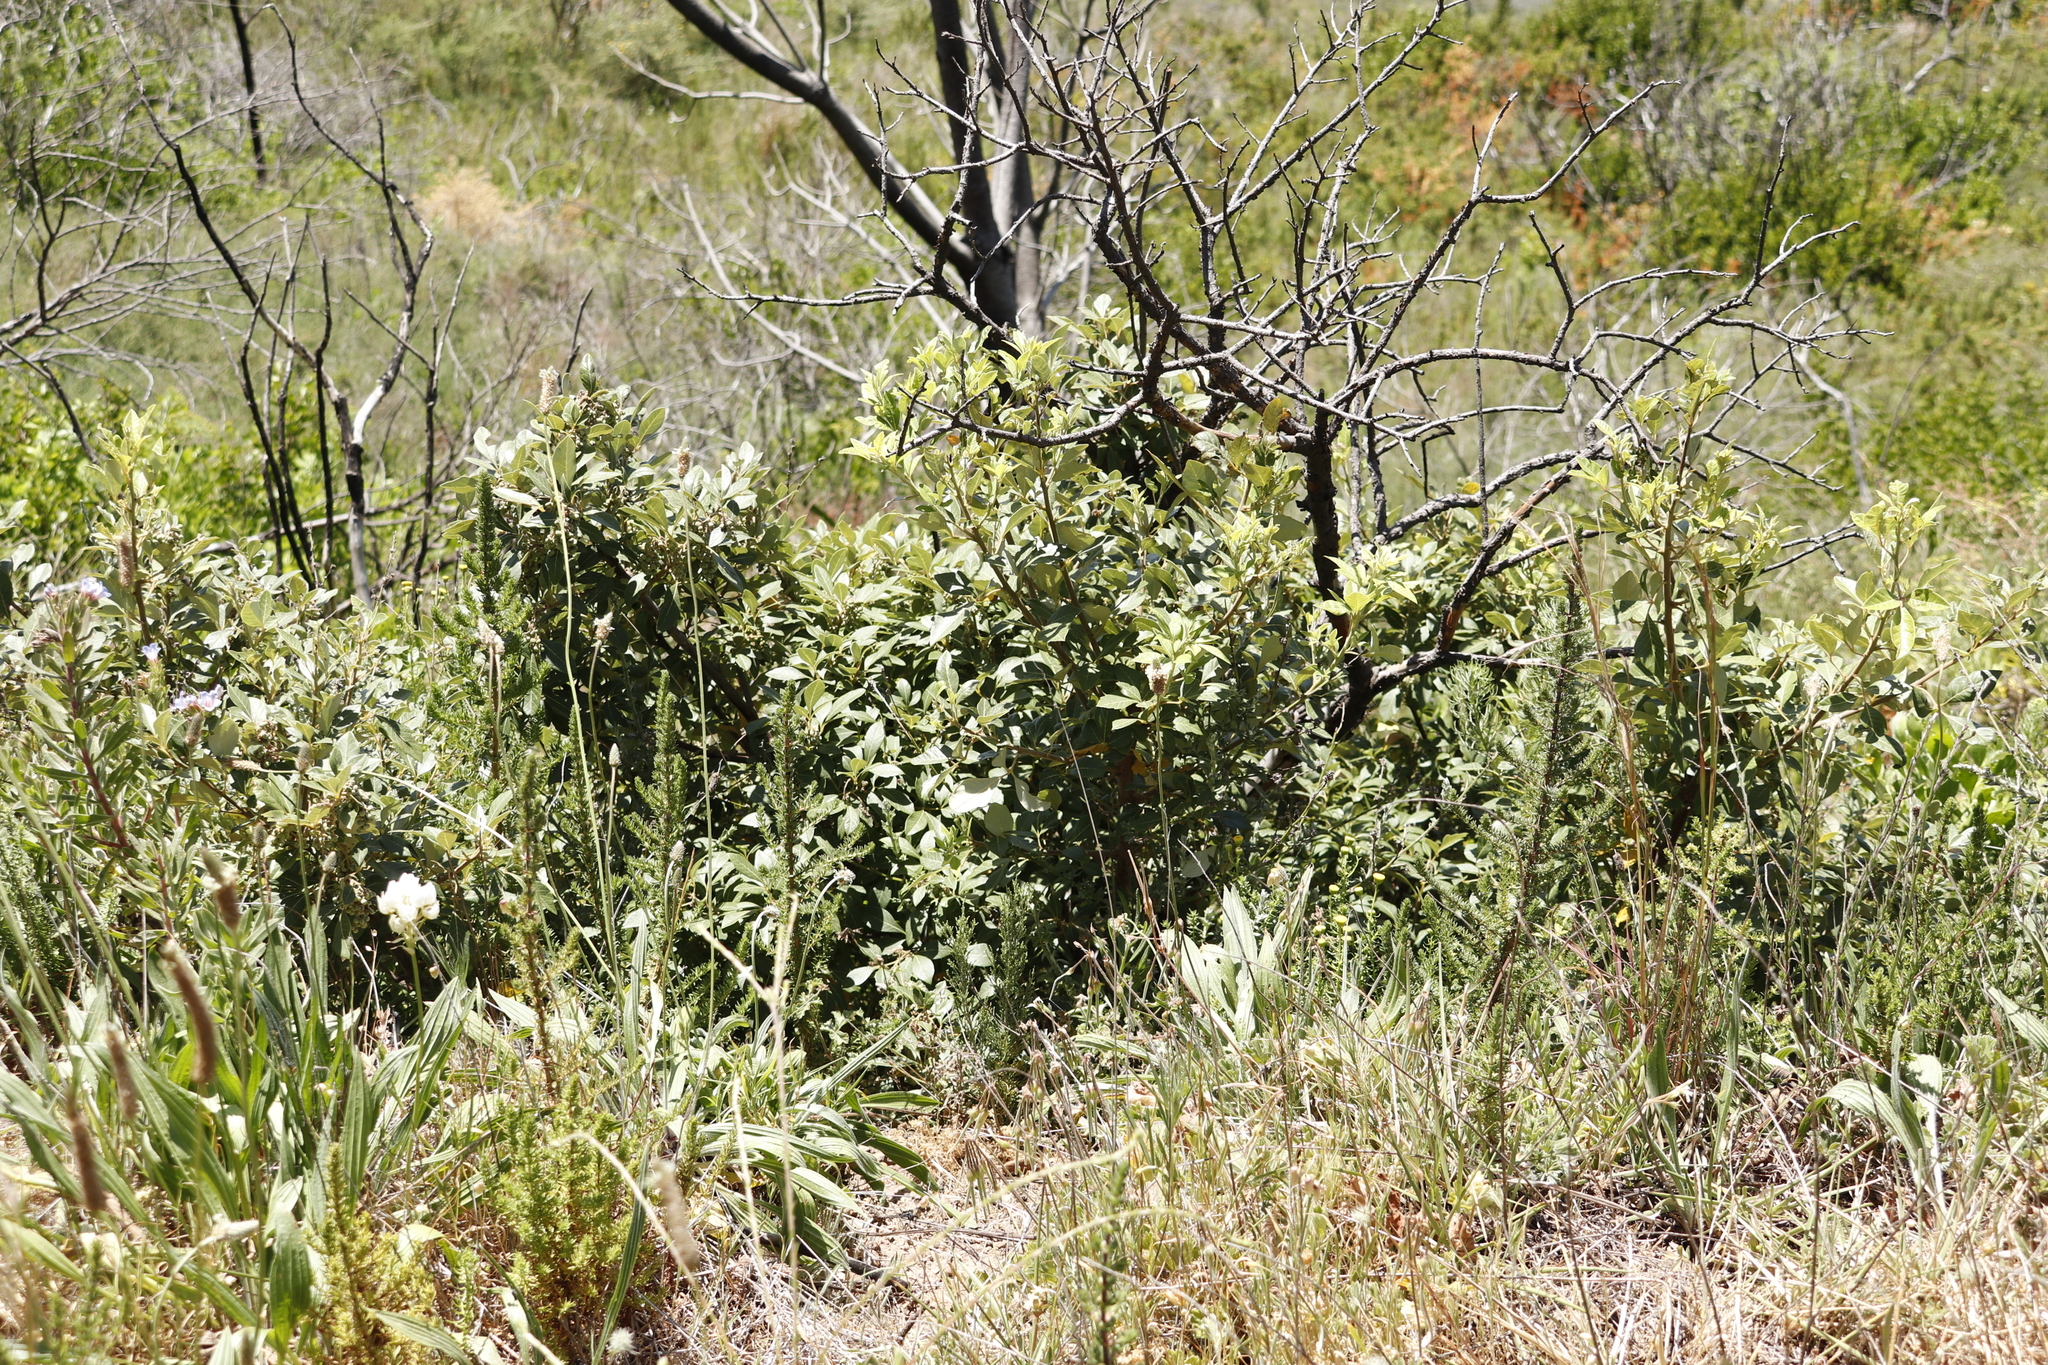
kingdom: Plantae
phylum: Tracheophyta
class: Magnoliopsida
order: Sapindales
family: Anacardiaceae
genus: Searsia
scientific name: Searsia tomentosa
